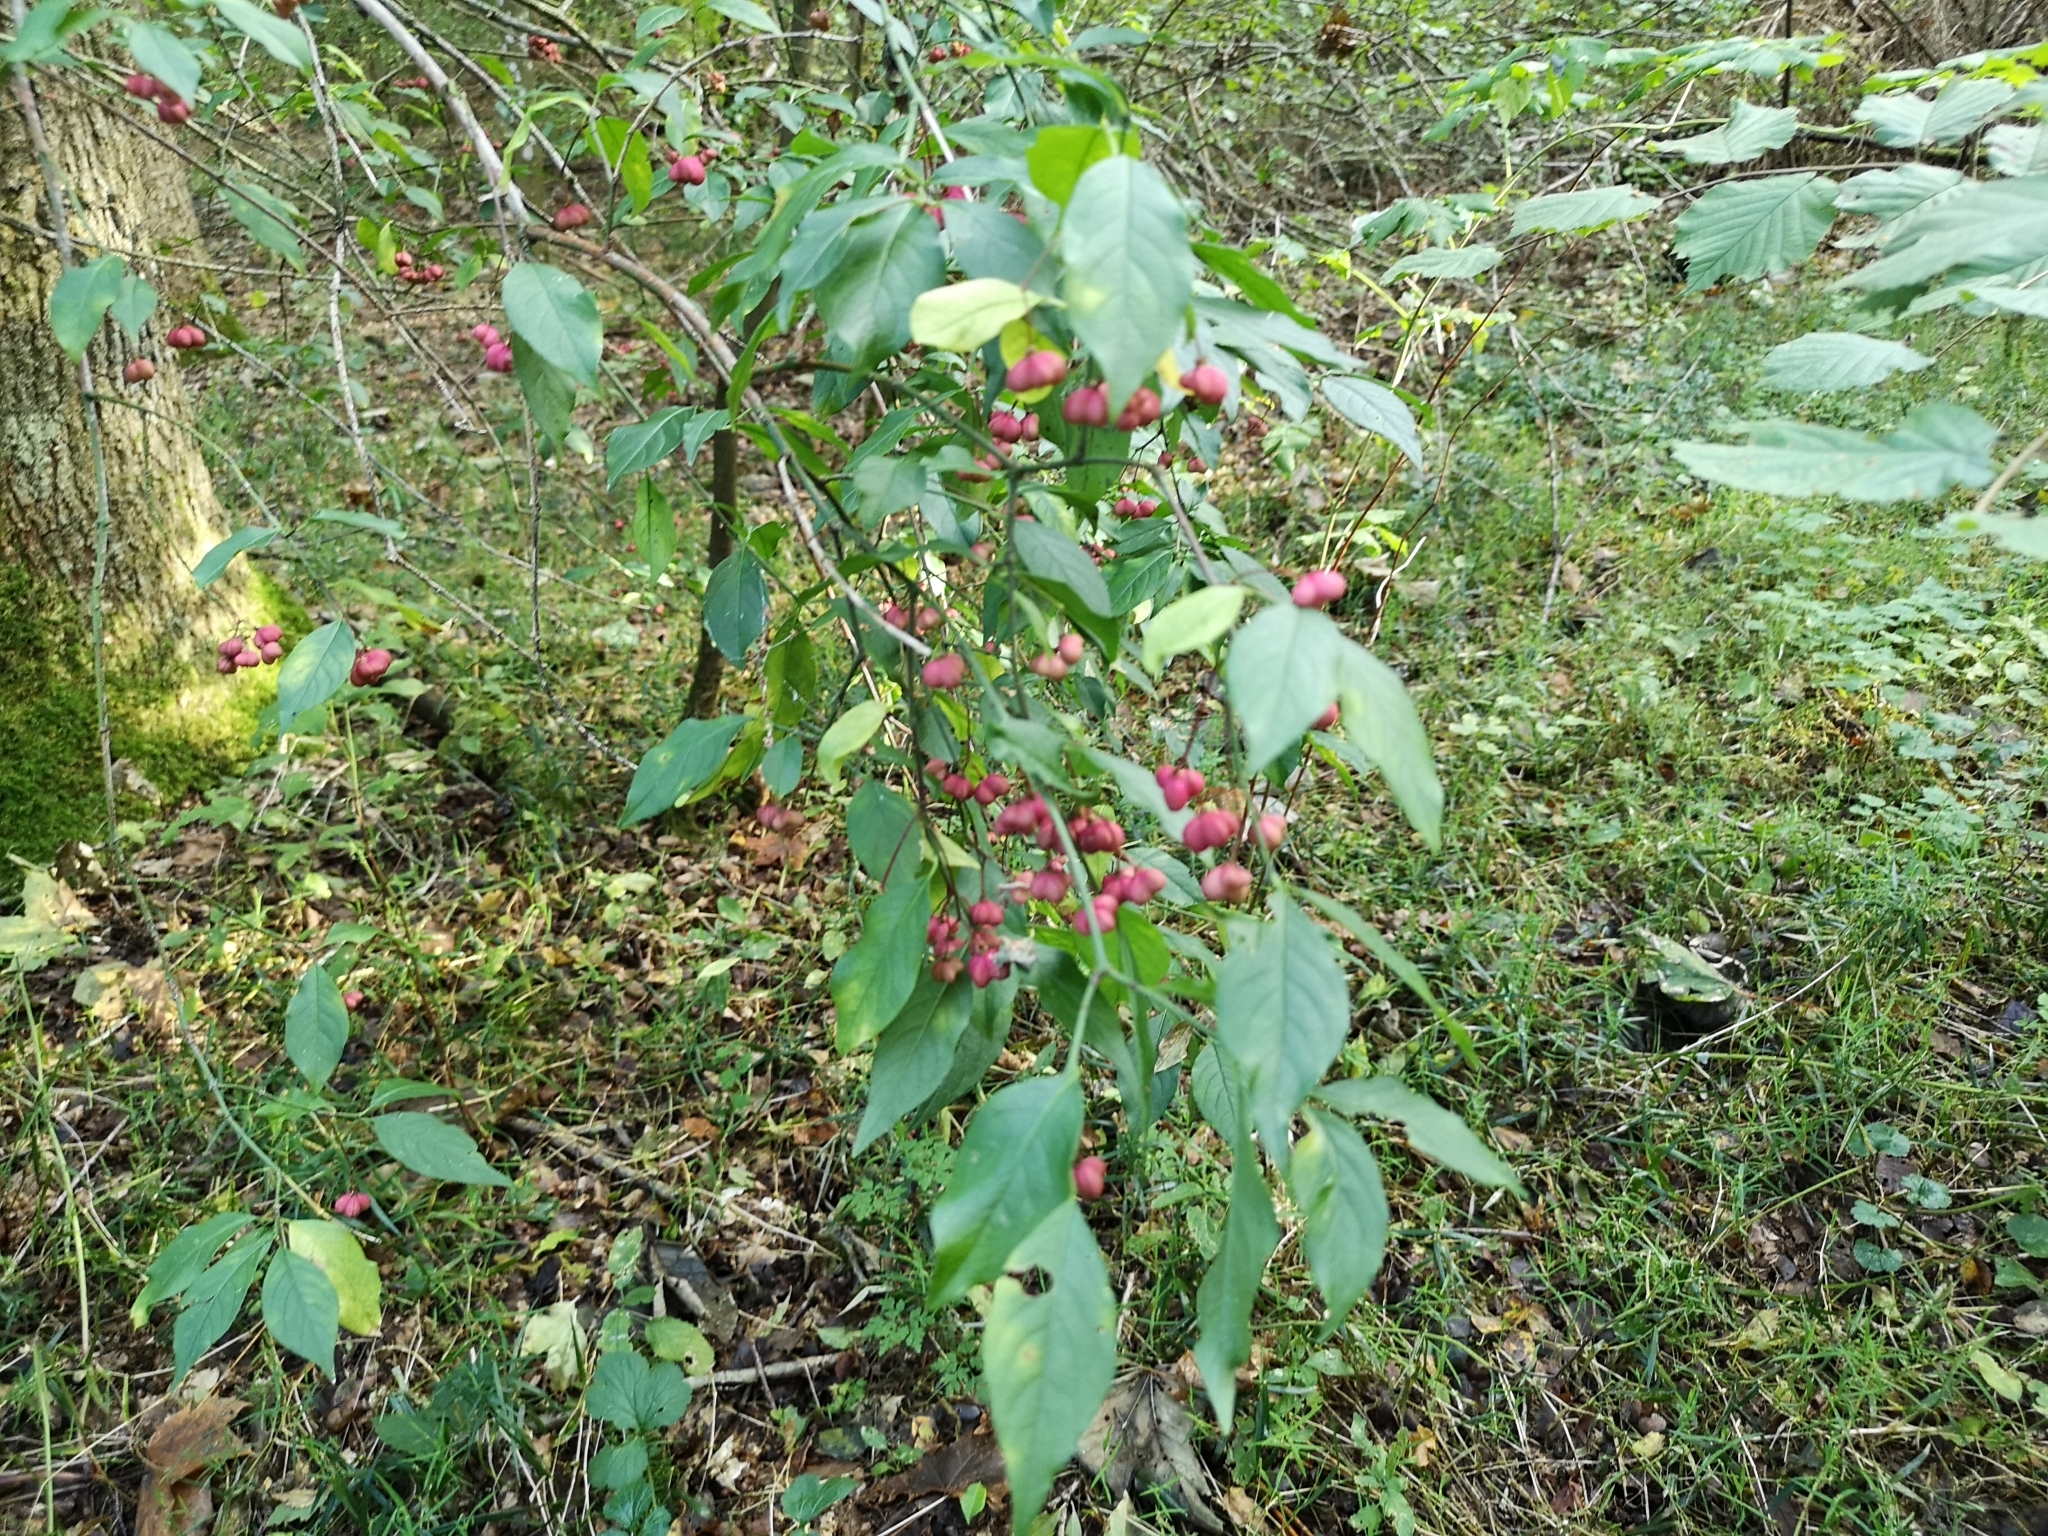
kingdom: Plantae
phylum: Tracheophyta
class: Magnoliopsida
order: Celastrales
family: Celastraceae
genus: Euonymus
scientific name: Euonymus europaeus
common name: Spindle
